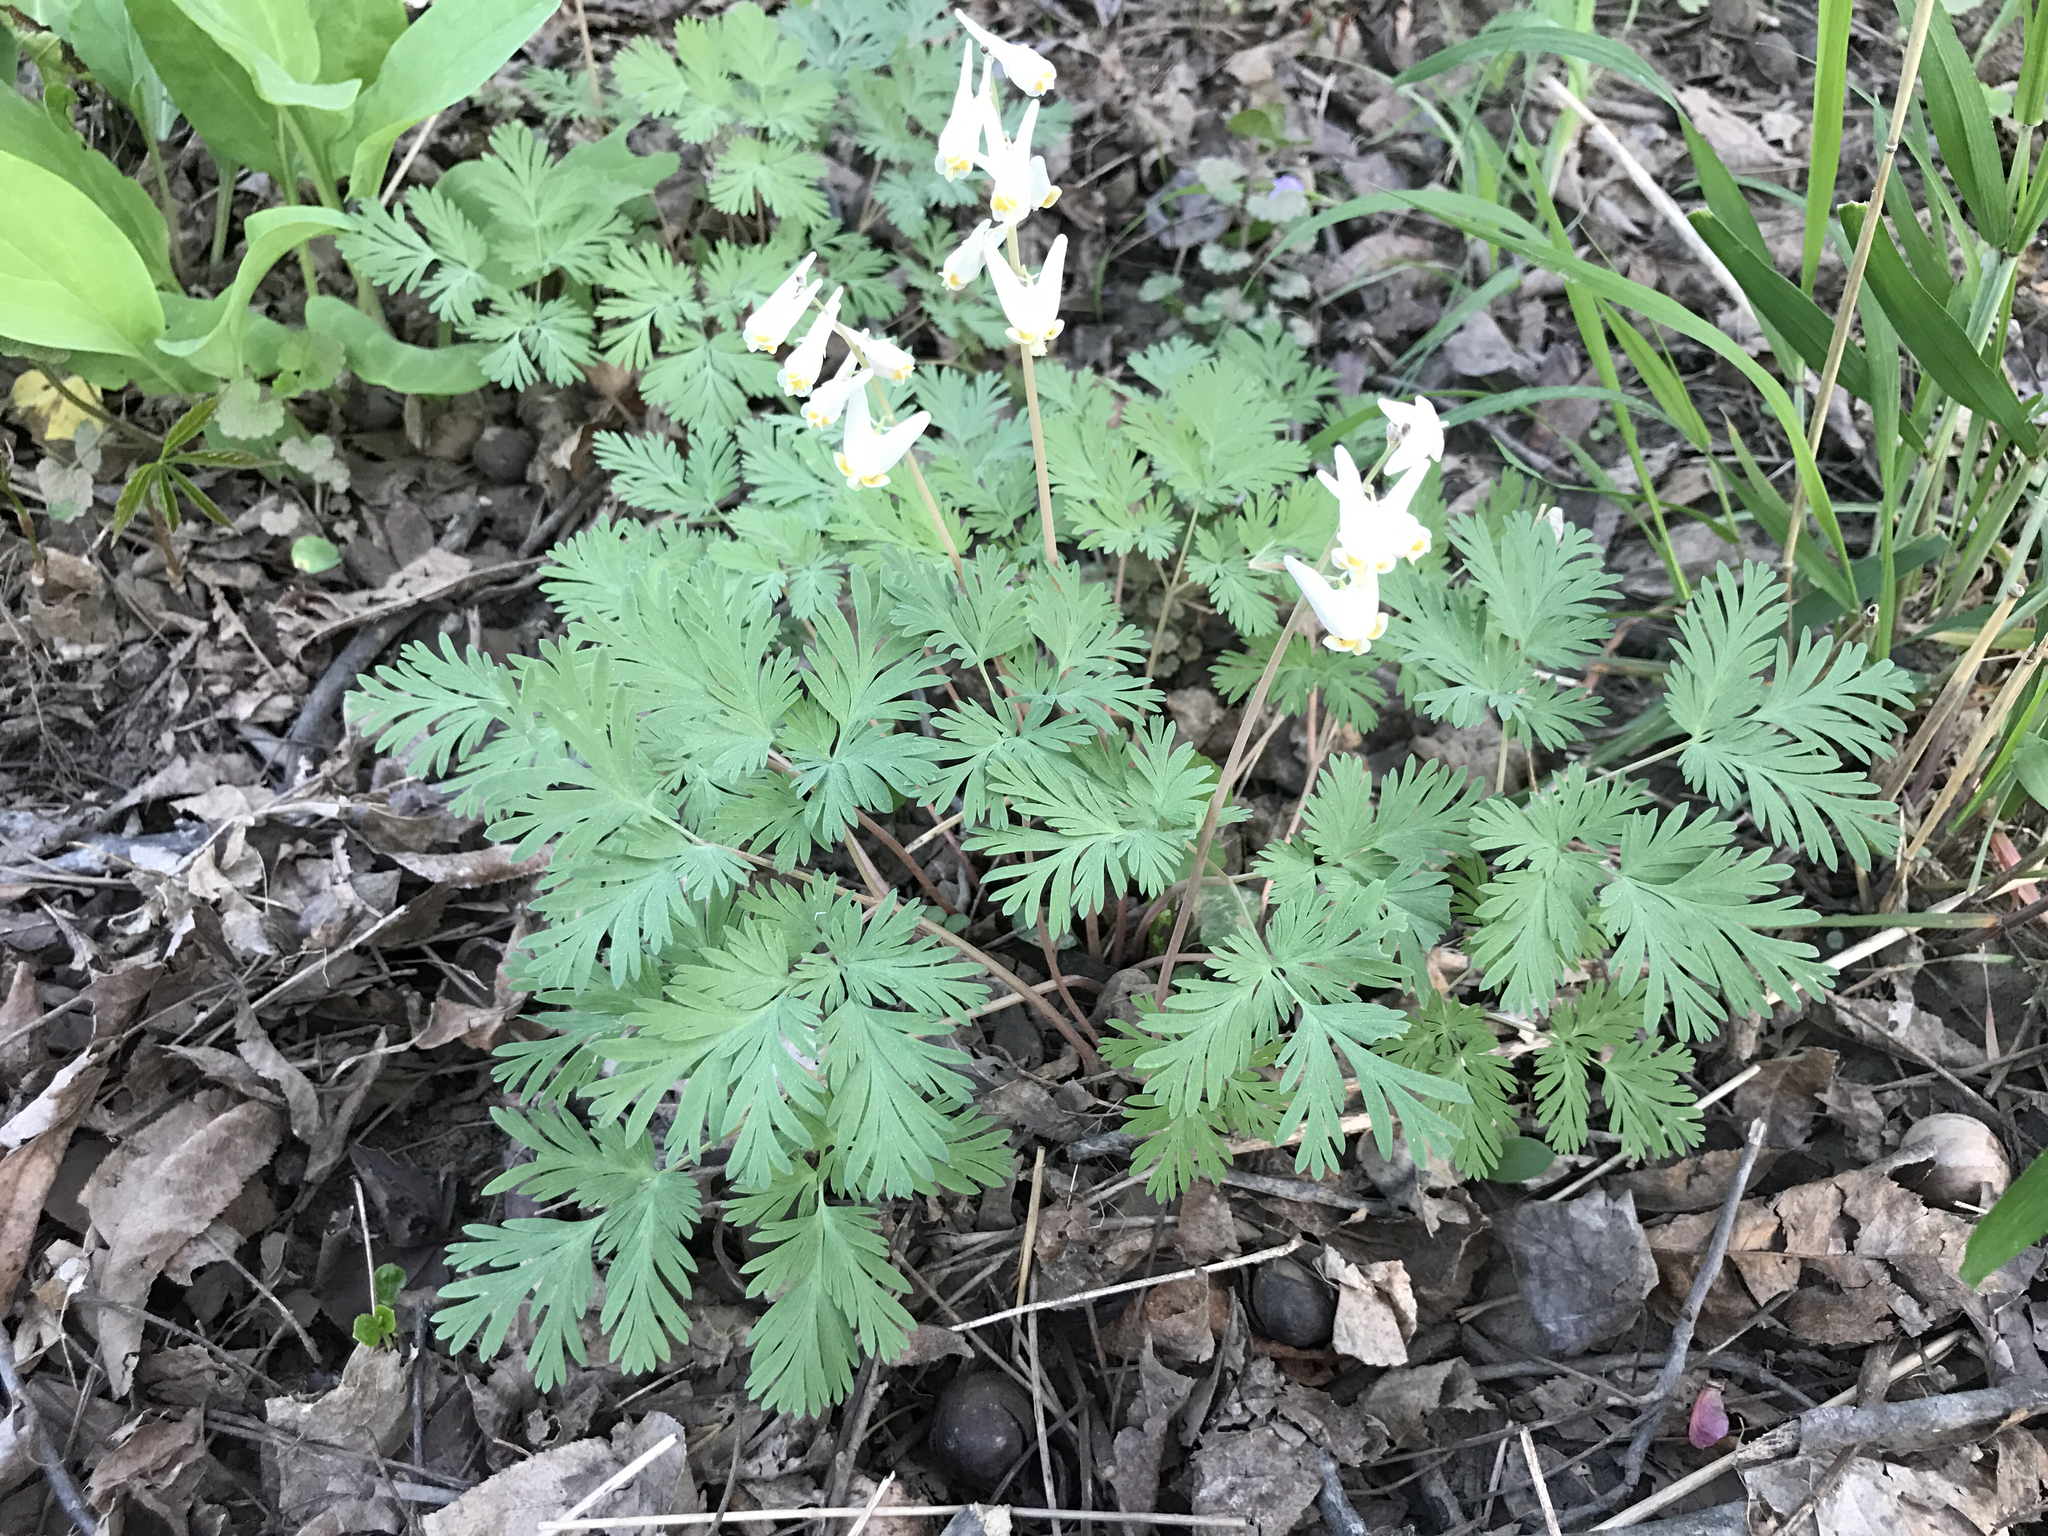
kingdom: Plantae
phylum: Tracheophyta
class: Magnoliopsida
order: Ranunculales
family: Papaveraceae
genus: Dicentra
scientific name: Dicentra cucullaria
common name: Dutchman's breeches
